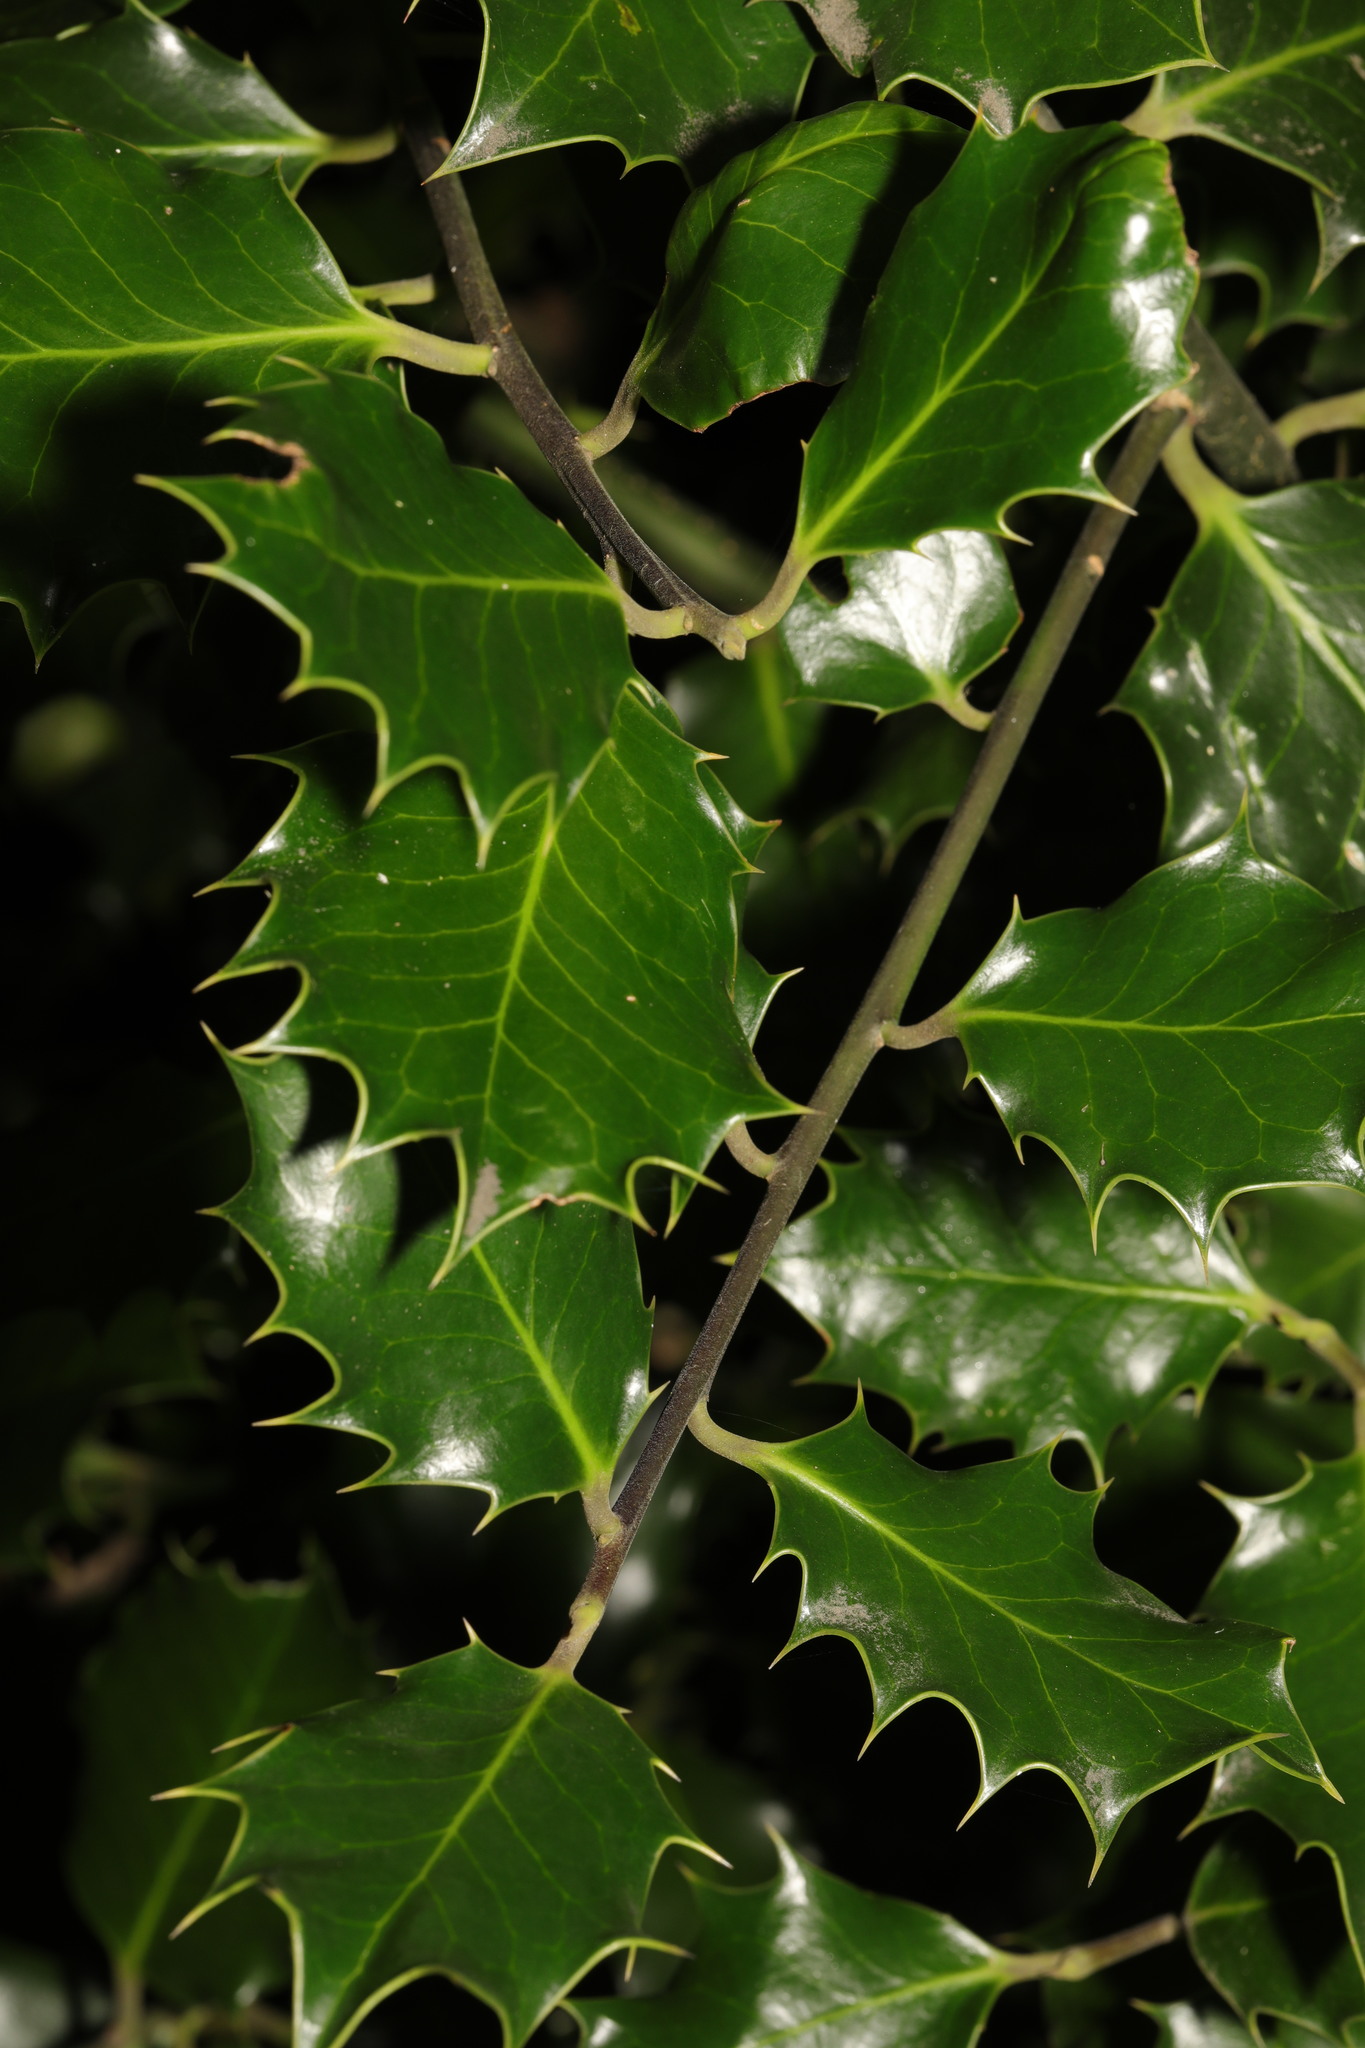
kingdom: Plantae
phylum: Tracheophyta
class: Magnoliopsida
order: Aquifoliales
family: Aquifoliaceae
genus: Ilex
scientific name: Ilex aquifolium
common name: English holly
